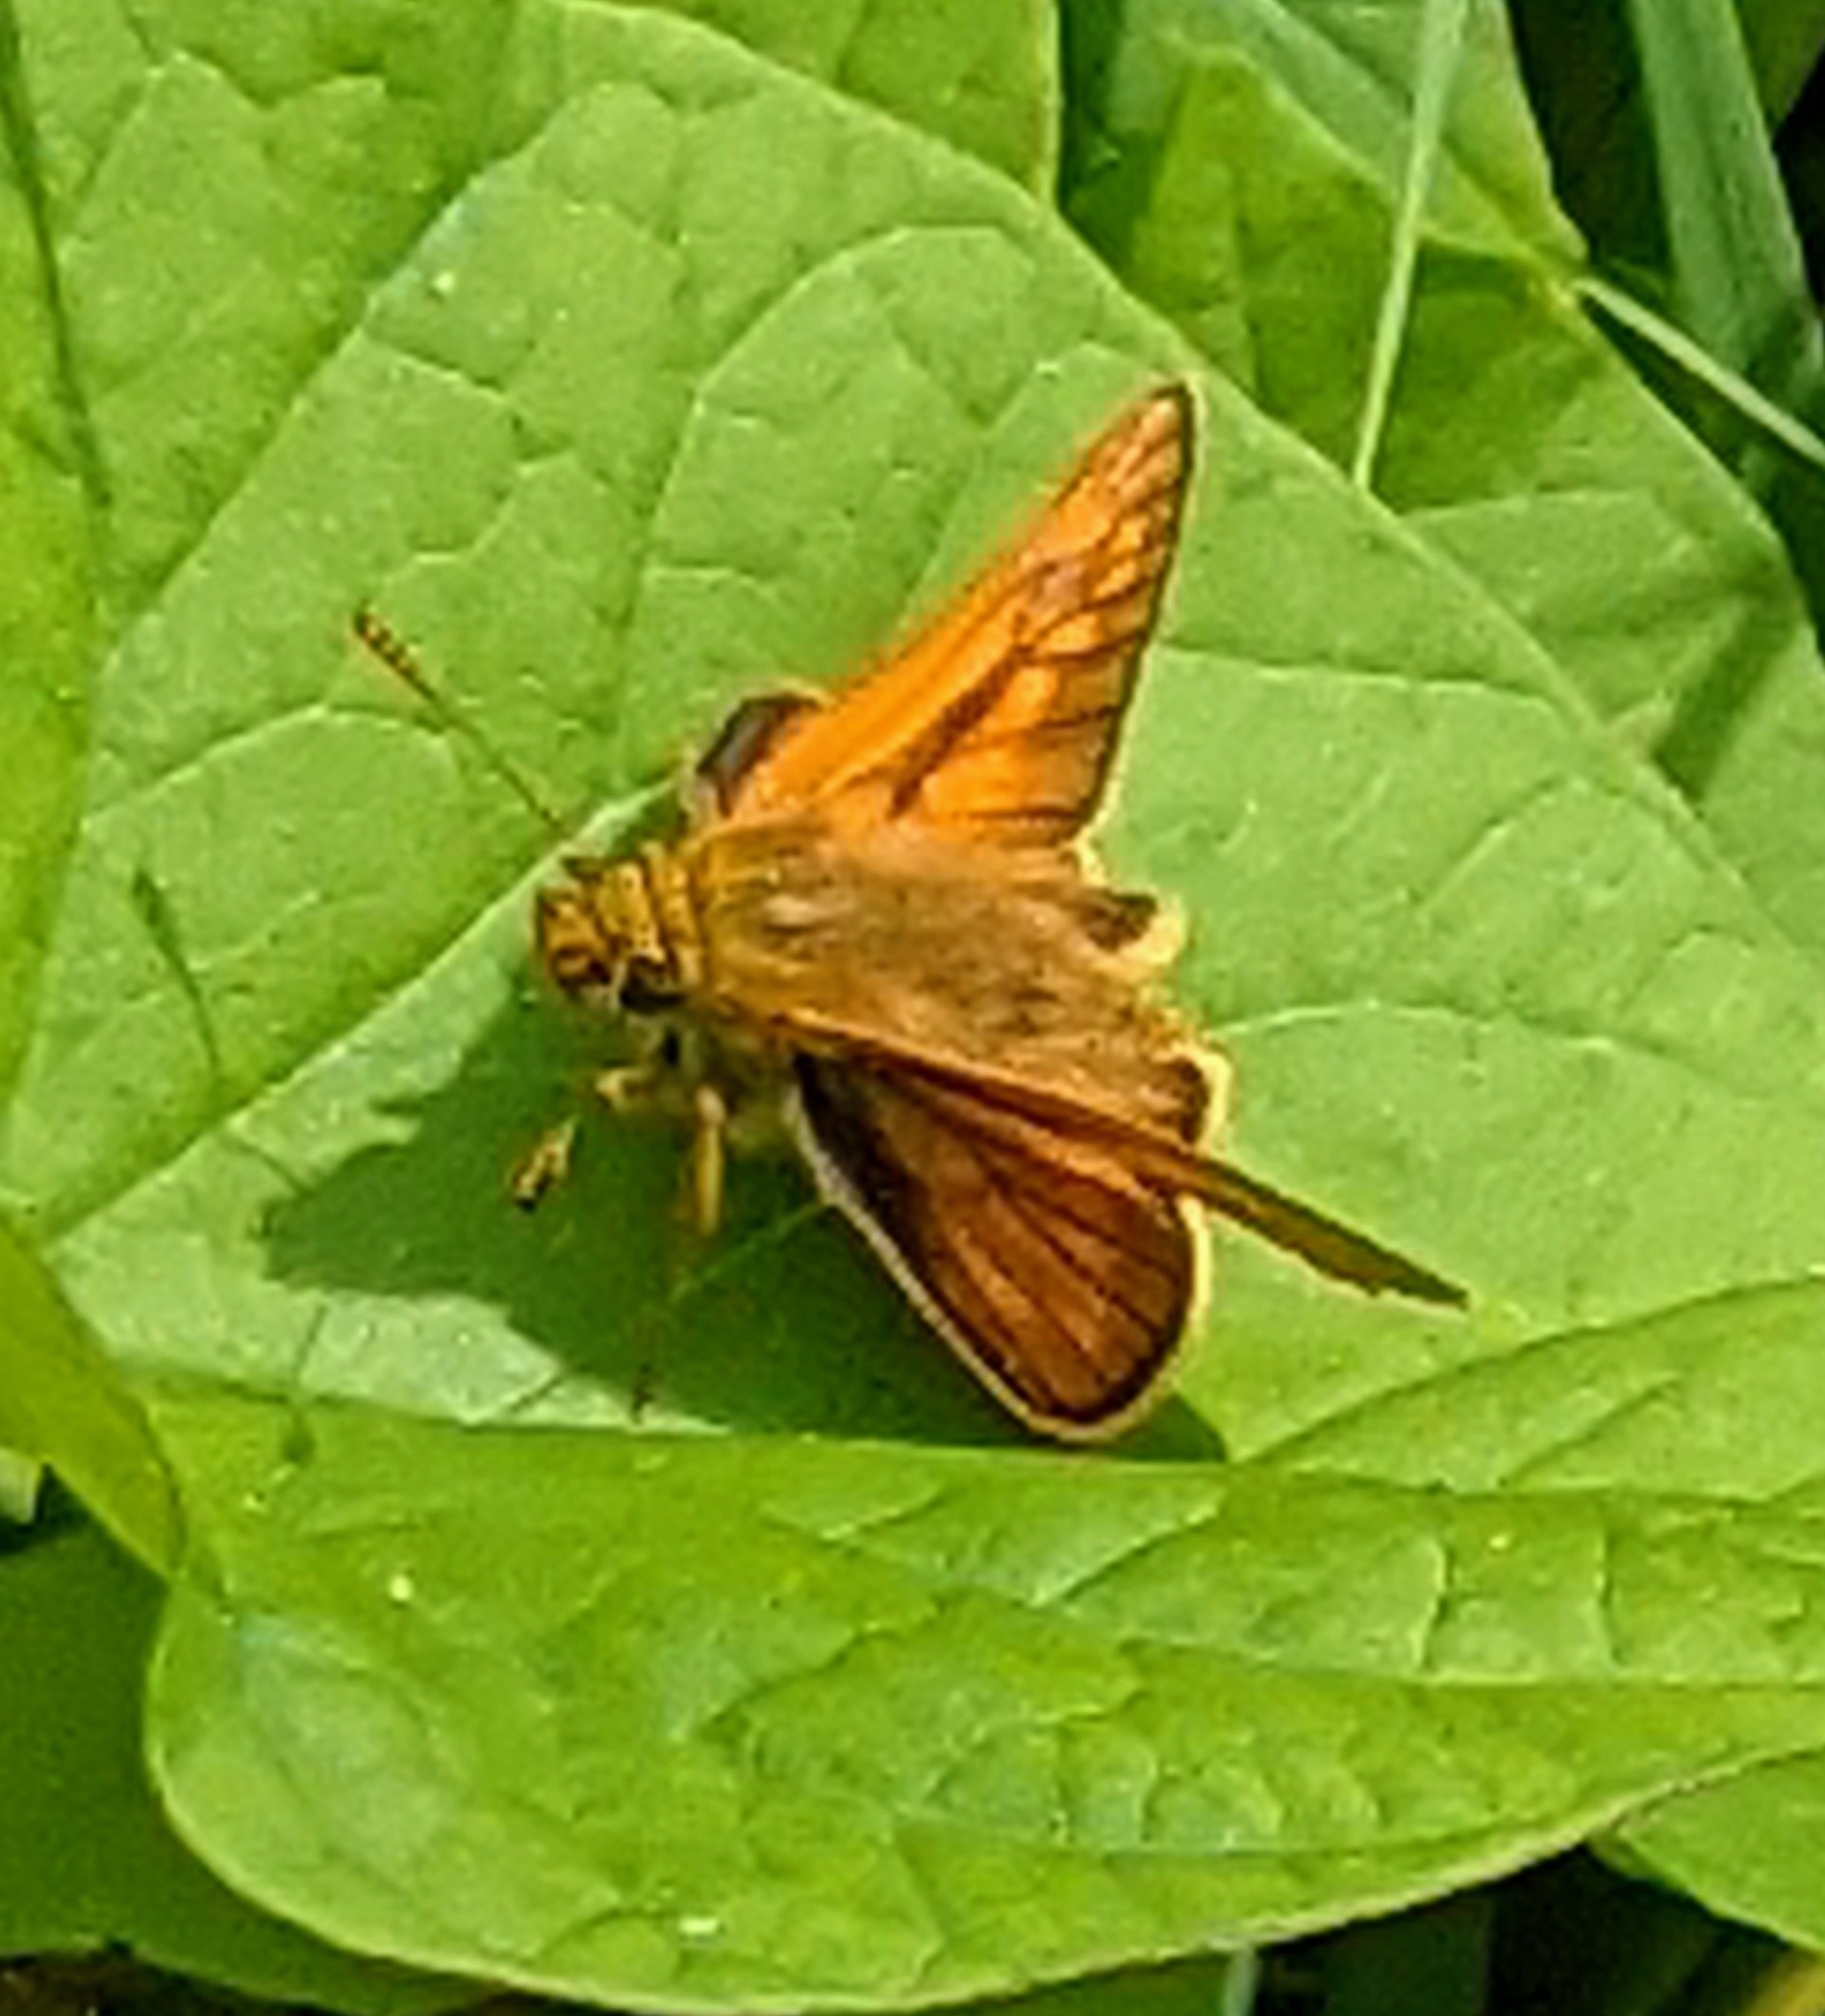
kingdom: Animalia
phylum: Arthropoda
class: Insecta
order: Lepidoptera
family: Hesperiidae
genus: Ochlodes
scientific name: Ochlodes venata
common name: Large skipper
